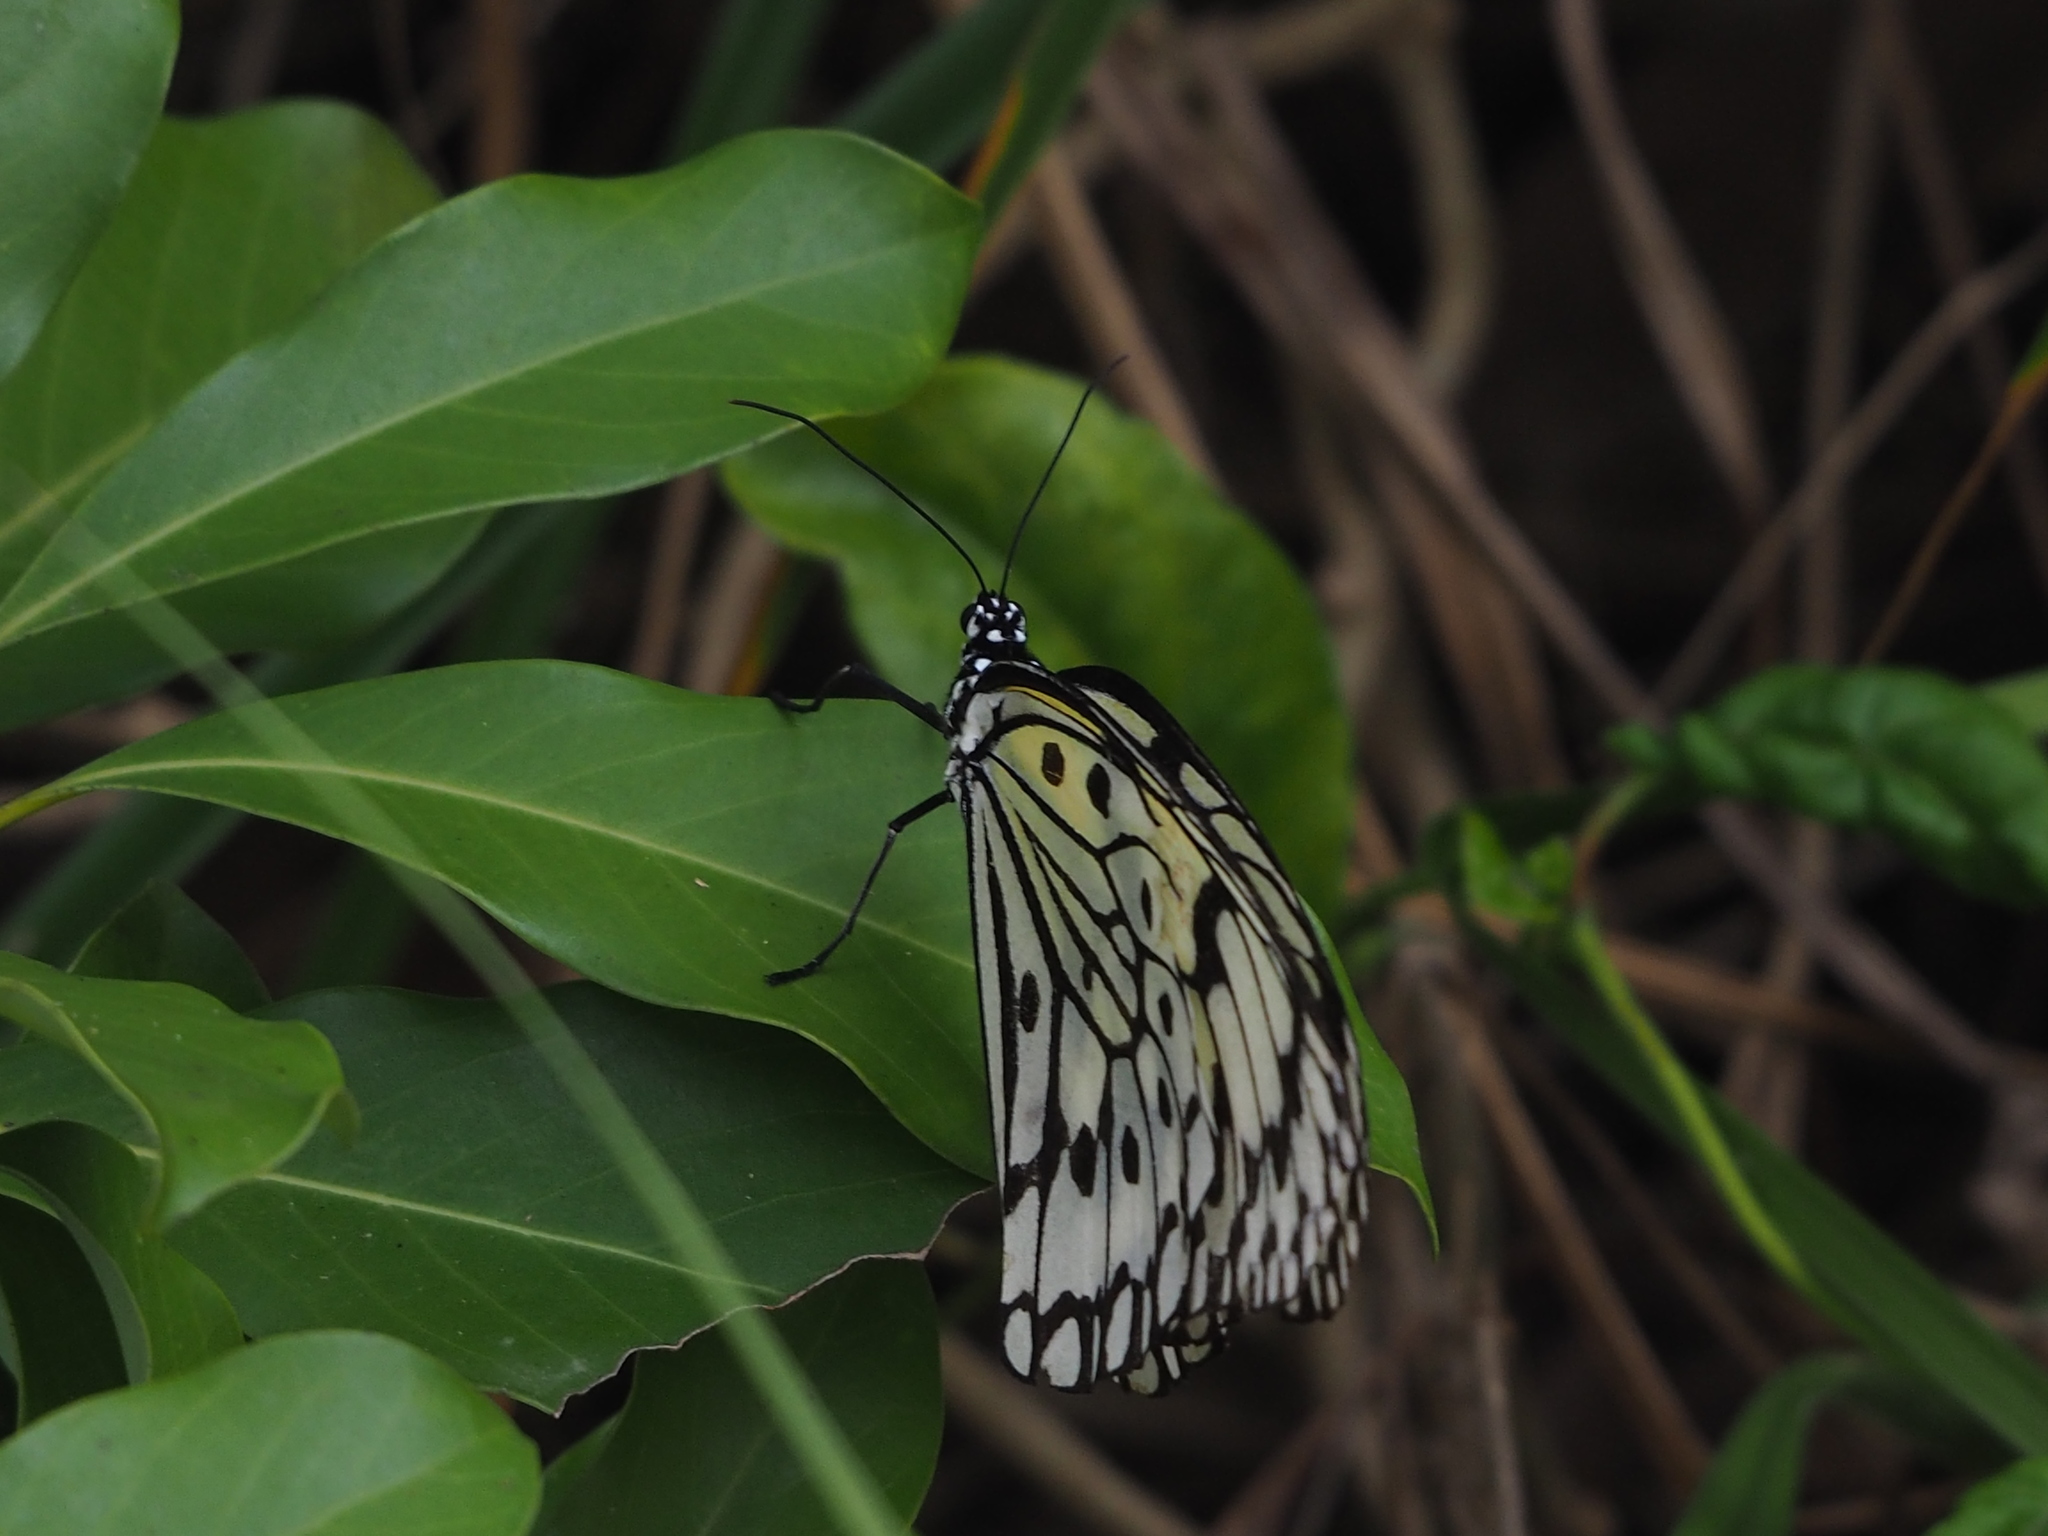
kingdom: Animalia
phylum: Arthropoda
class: Insecta
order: Lepidoptera
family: Nymphalidae
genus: Idea
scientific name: Idea leuconoe
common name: Rice paper butterfly
